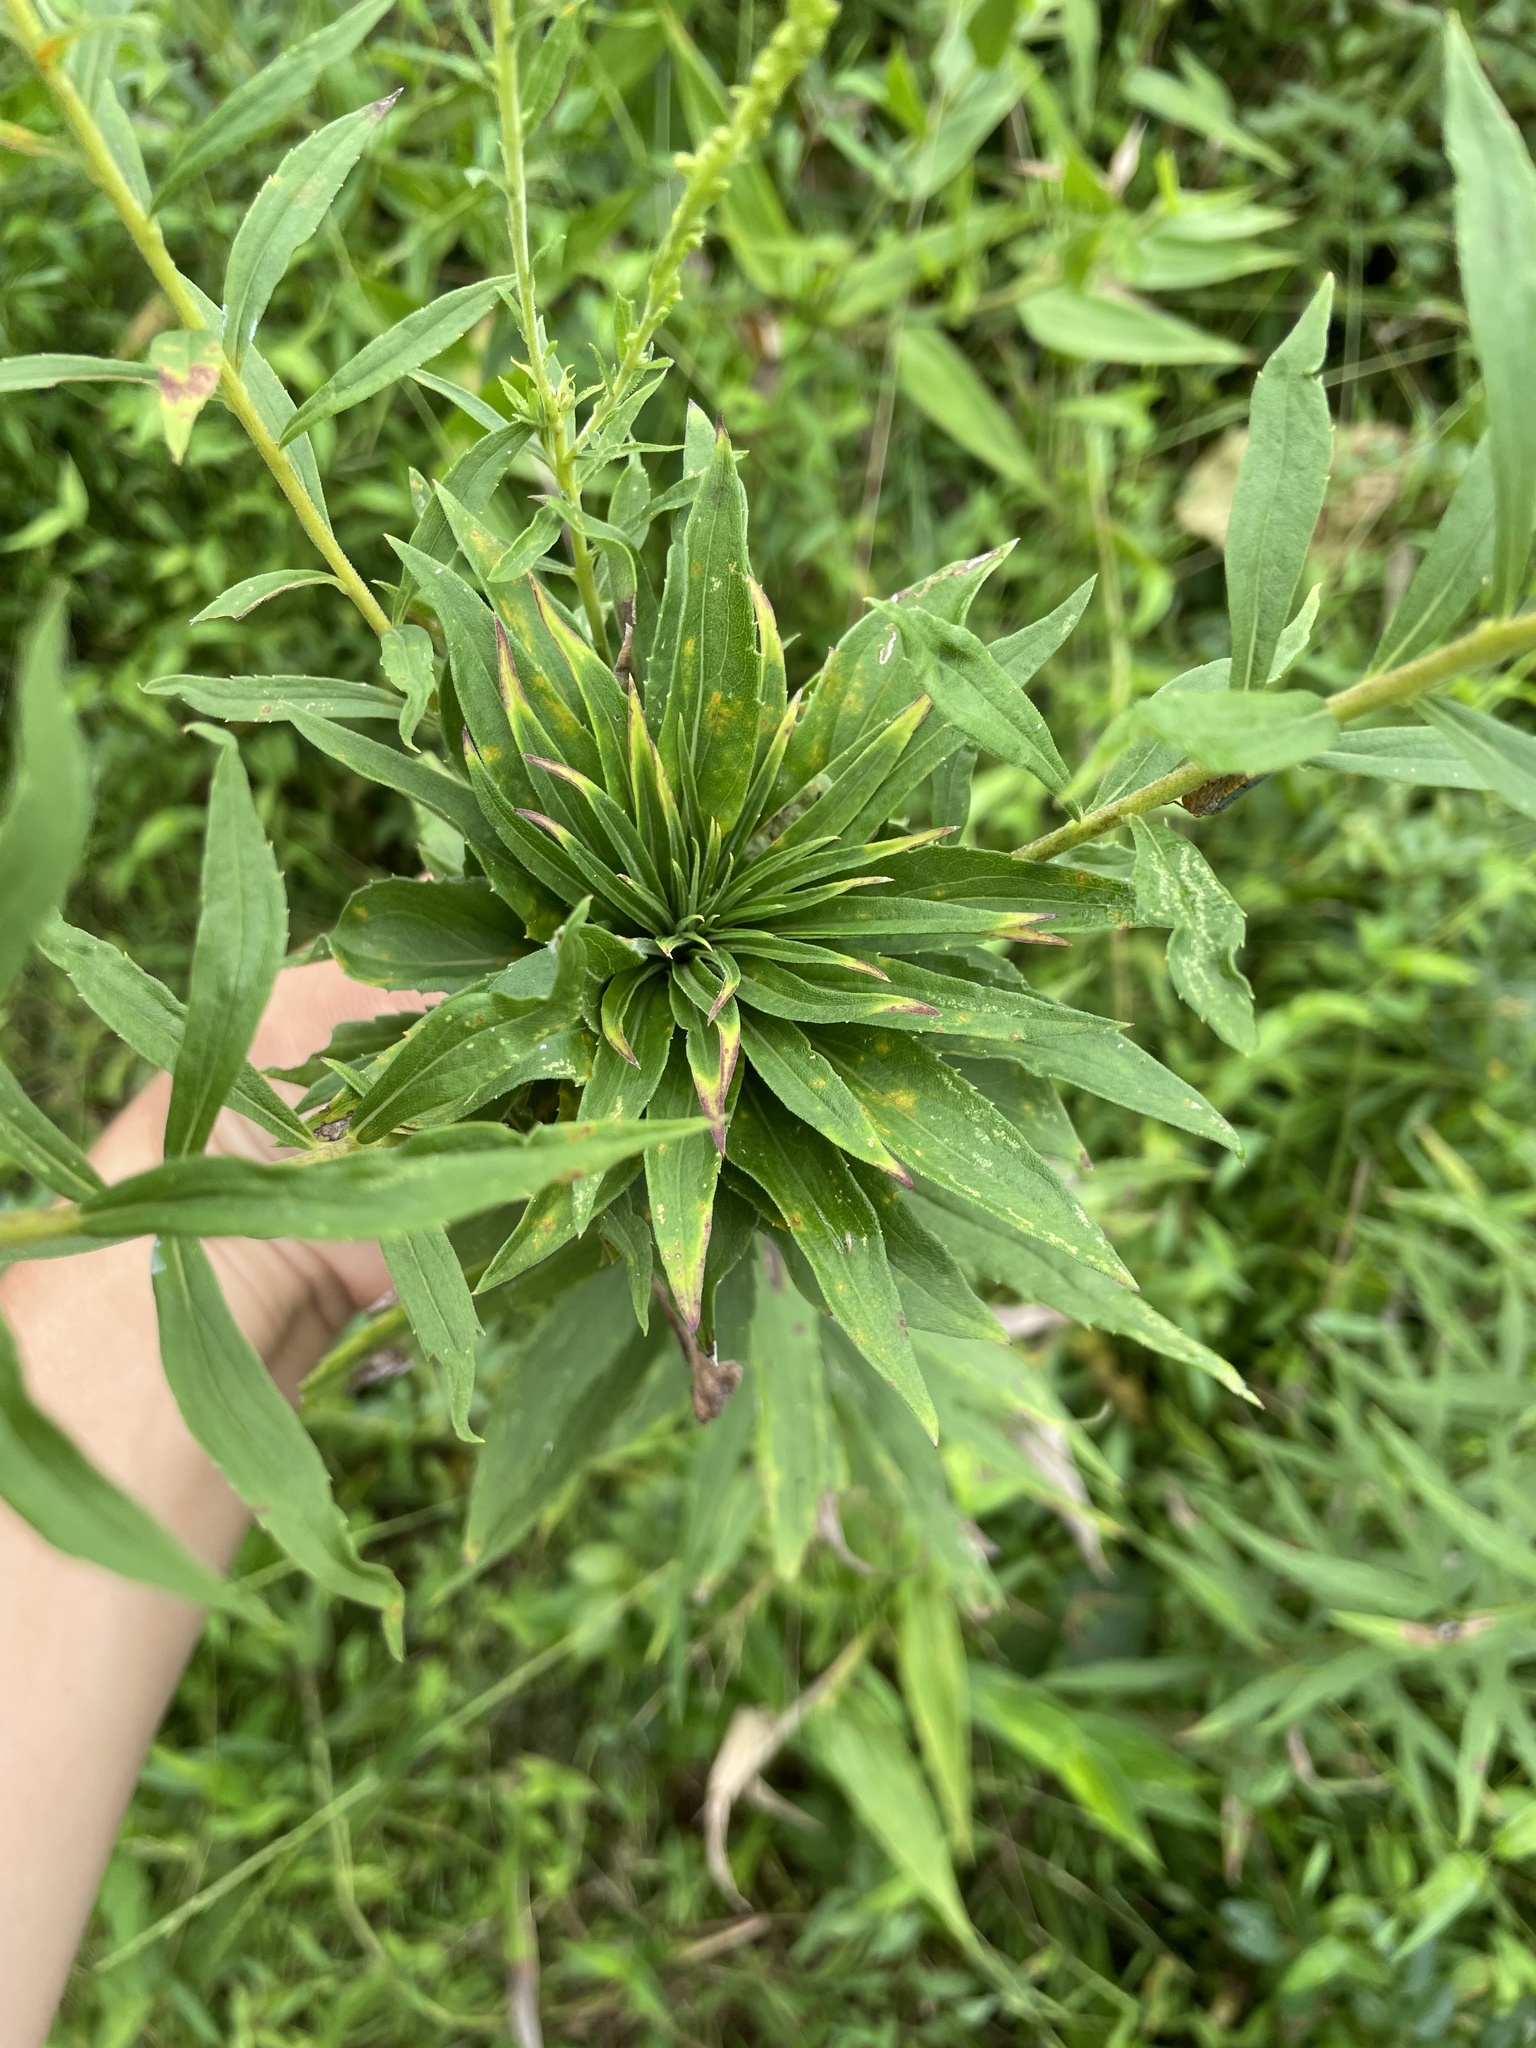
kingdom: Animalia
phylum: Arthropoda
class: Insecta
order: Diptera
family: Cecidomyiidae
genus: Rhopalomyia
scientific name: Rhopalomyia solidaginis
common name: Goldenrod bunch gall midge
